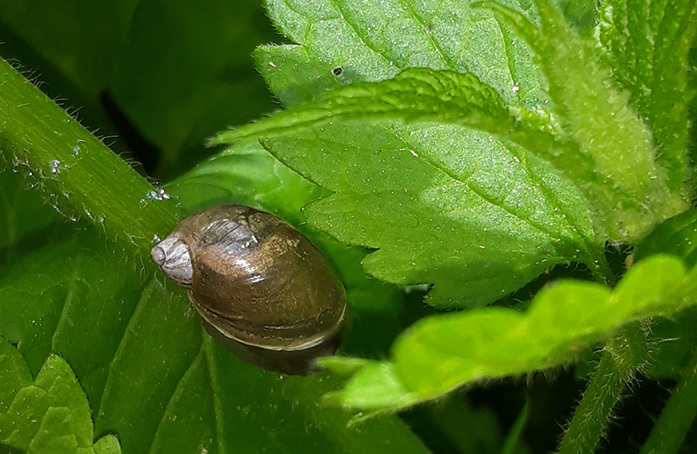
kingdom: Animalia
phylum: Mollusca
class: Gastropoda
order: Stylommatophora
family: Succineidae
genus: Succinea
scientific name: Succinea putris
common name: European ambersnail
